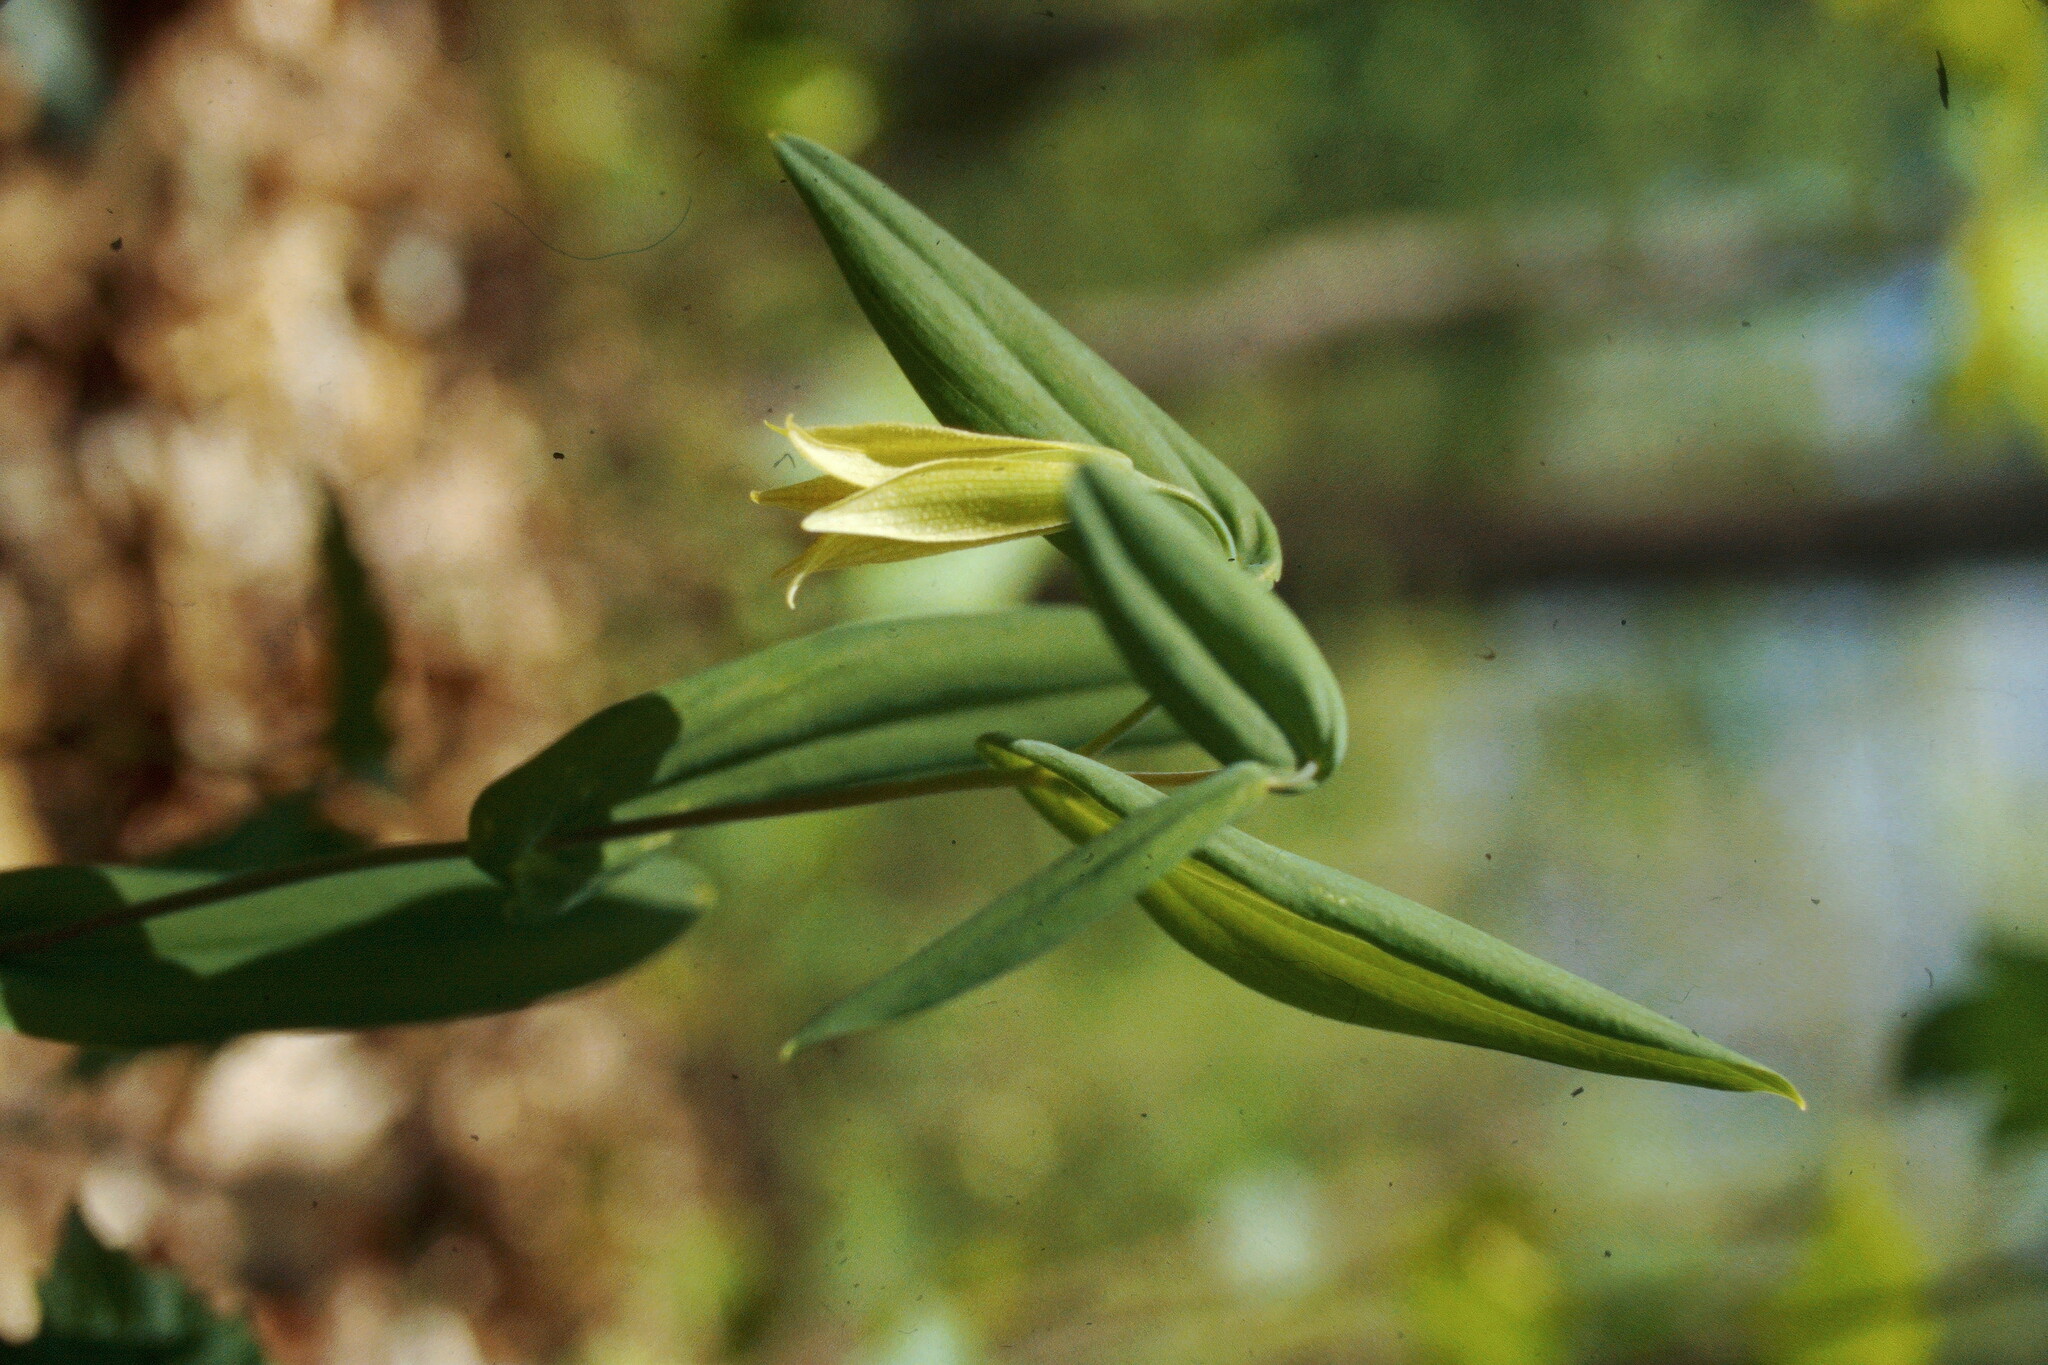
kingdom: Plantae
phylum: Tracheophyta
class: Liliopsida
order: Liliales
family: Colchicaceae
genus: Uvularia
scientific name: Uvularia perfoliata
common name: Perfoliate bellwort
